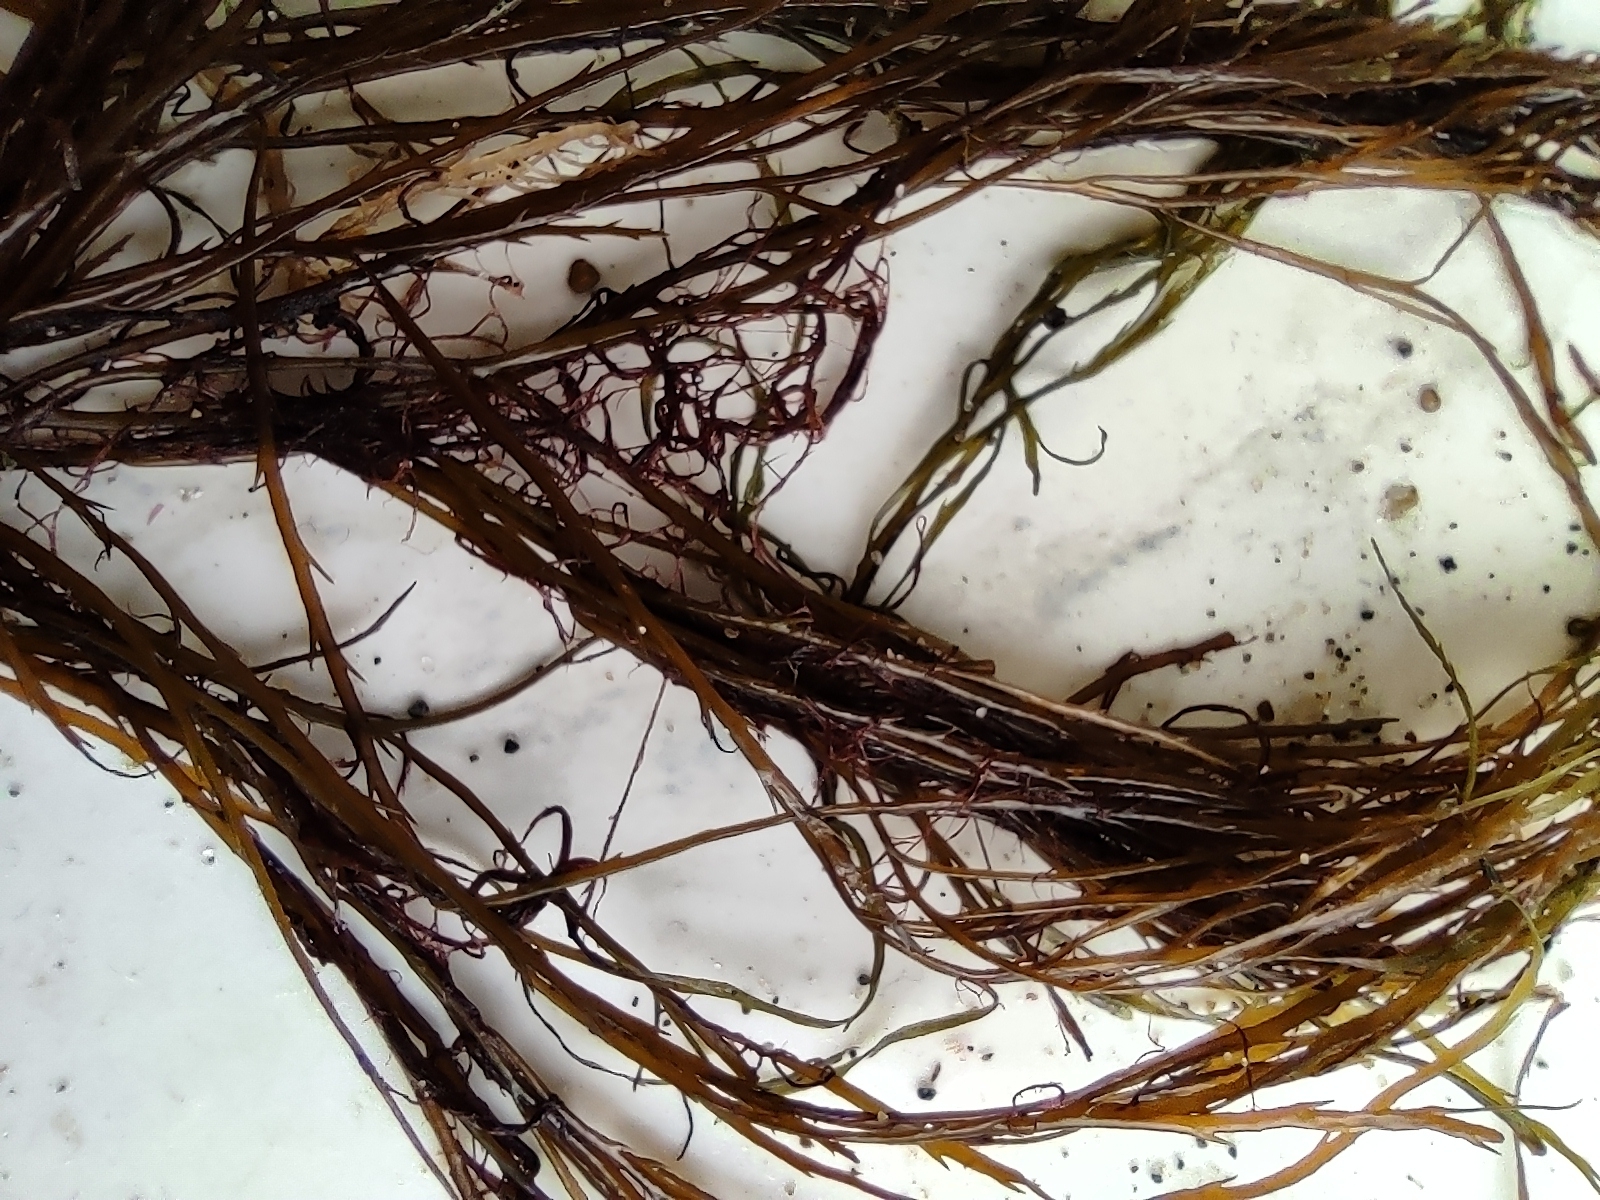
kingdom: Chromista
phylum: Ochrophyta
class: Phaeophyceae
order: Desmarestiales
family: Desmarestiaceae
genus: Desmarestia
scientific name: Desmarestia aculeata
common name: Witch's hair
